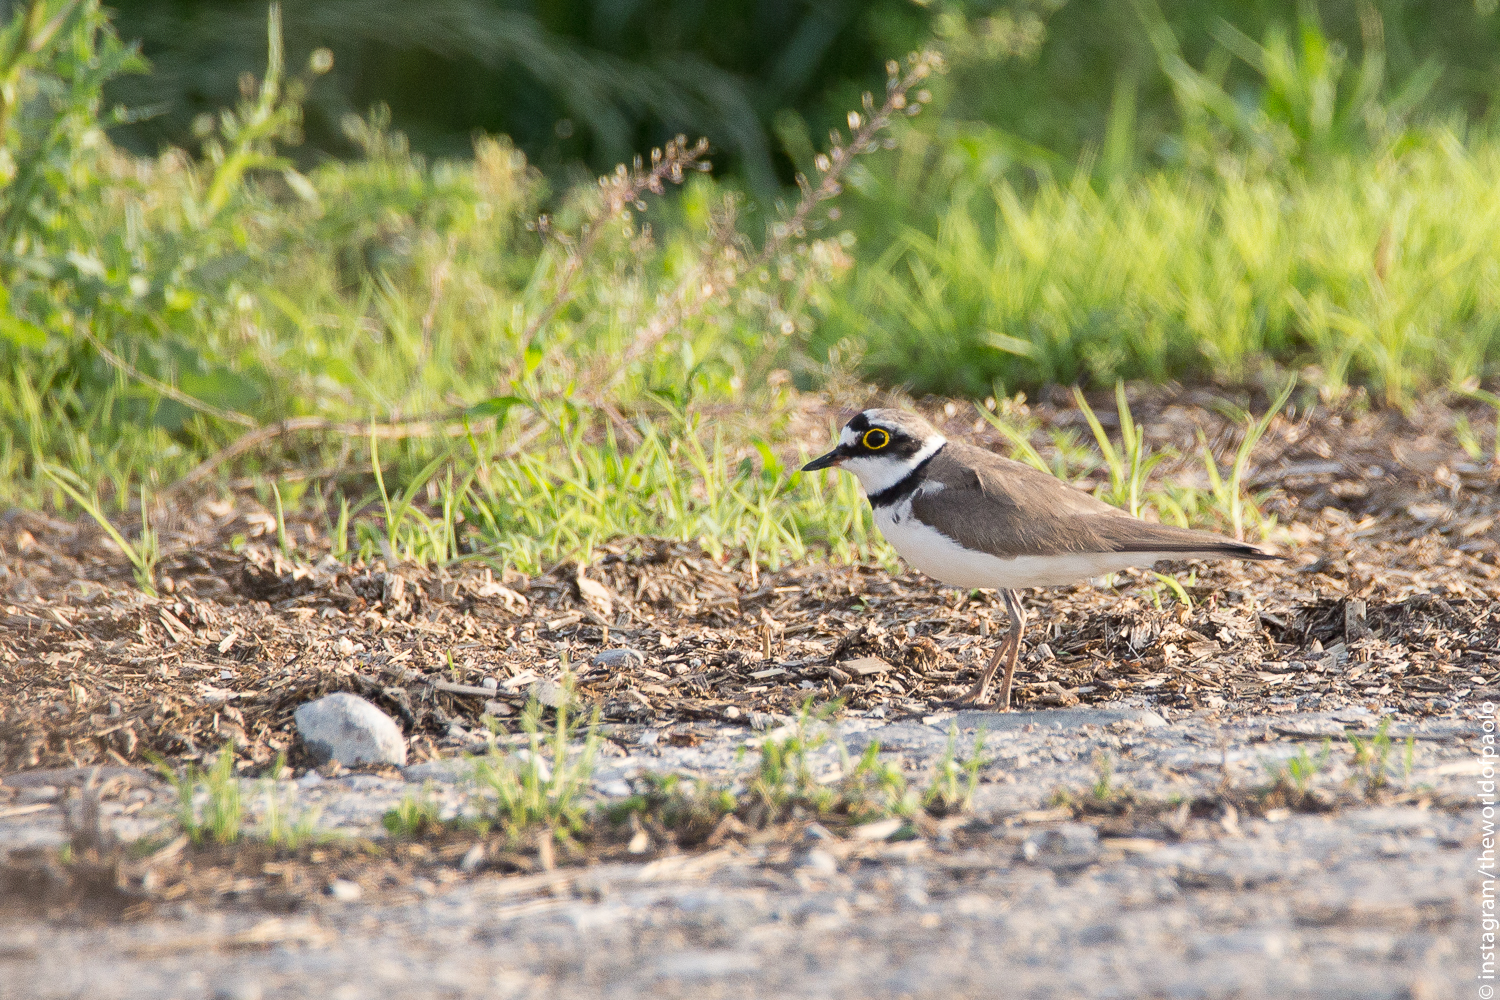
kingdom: Animalia
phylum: Chordata
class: Aves
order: Charadriiformes
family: Charadriidae
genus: Charadrius
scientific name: Charadrius dubius
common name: Little ringed plover
